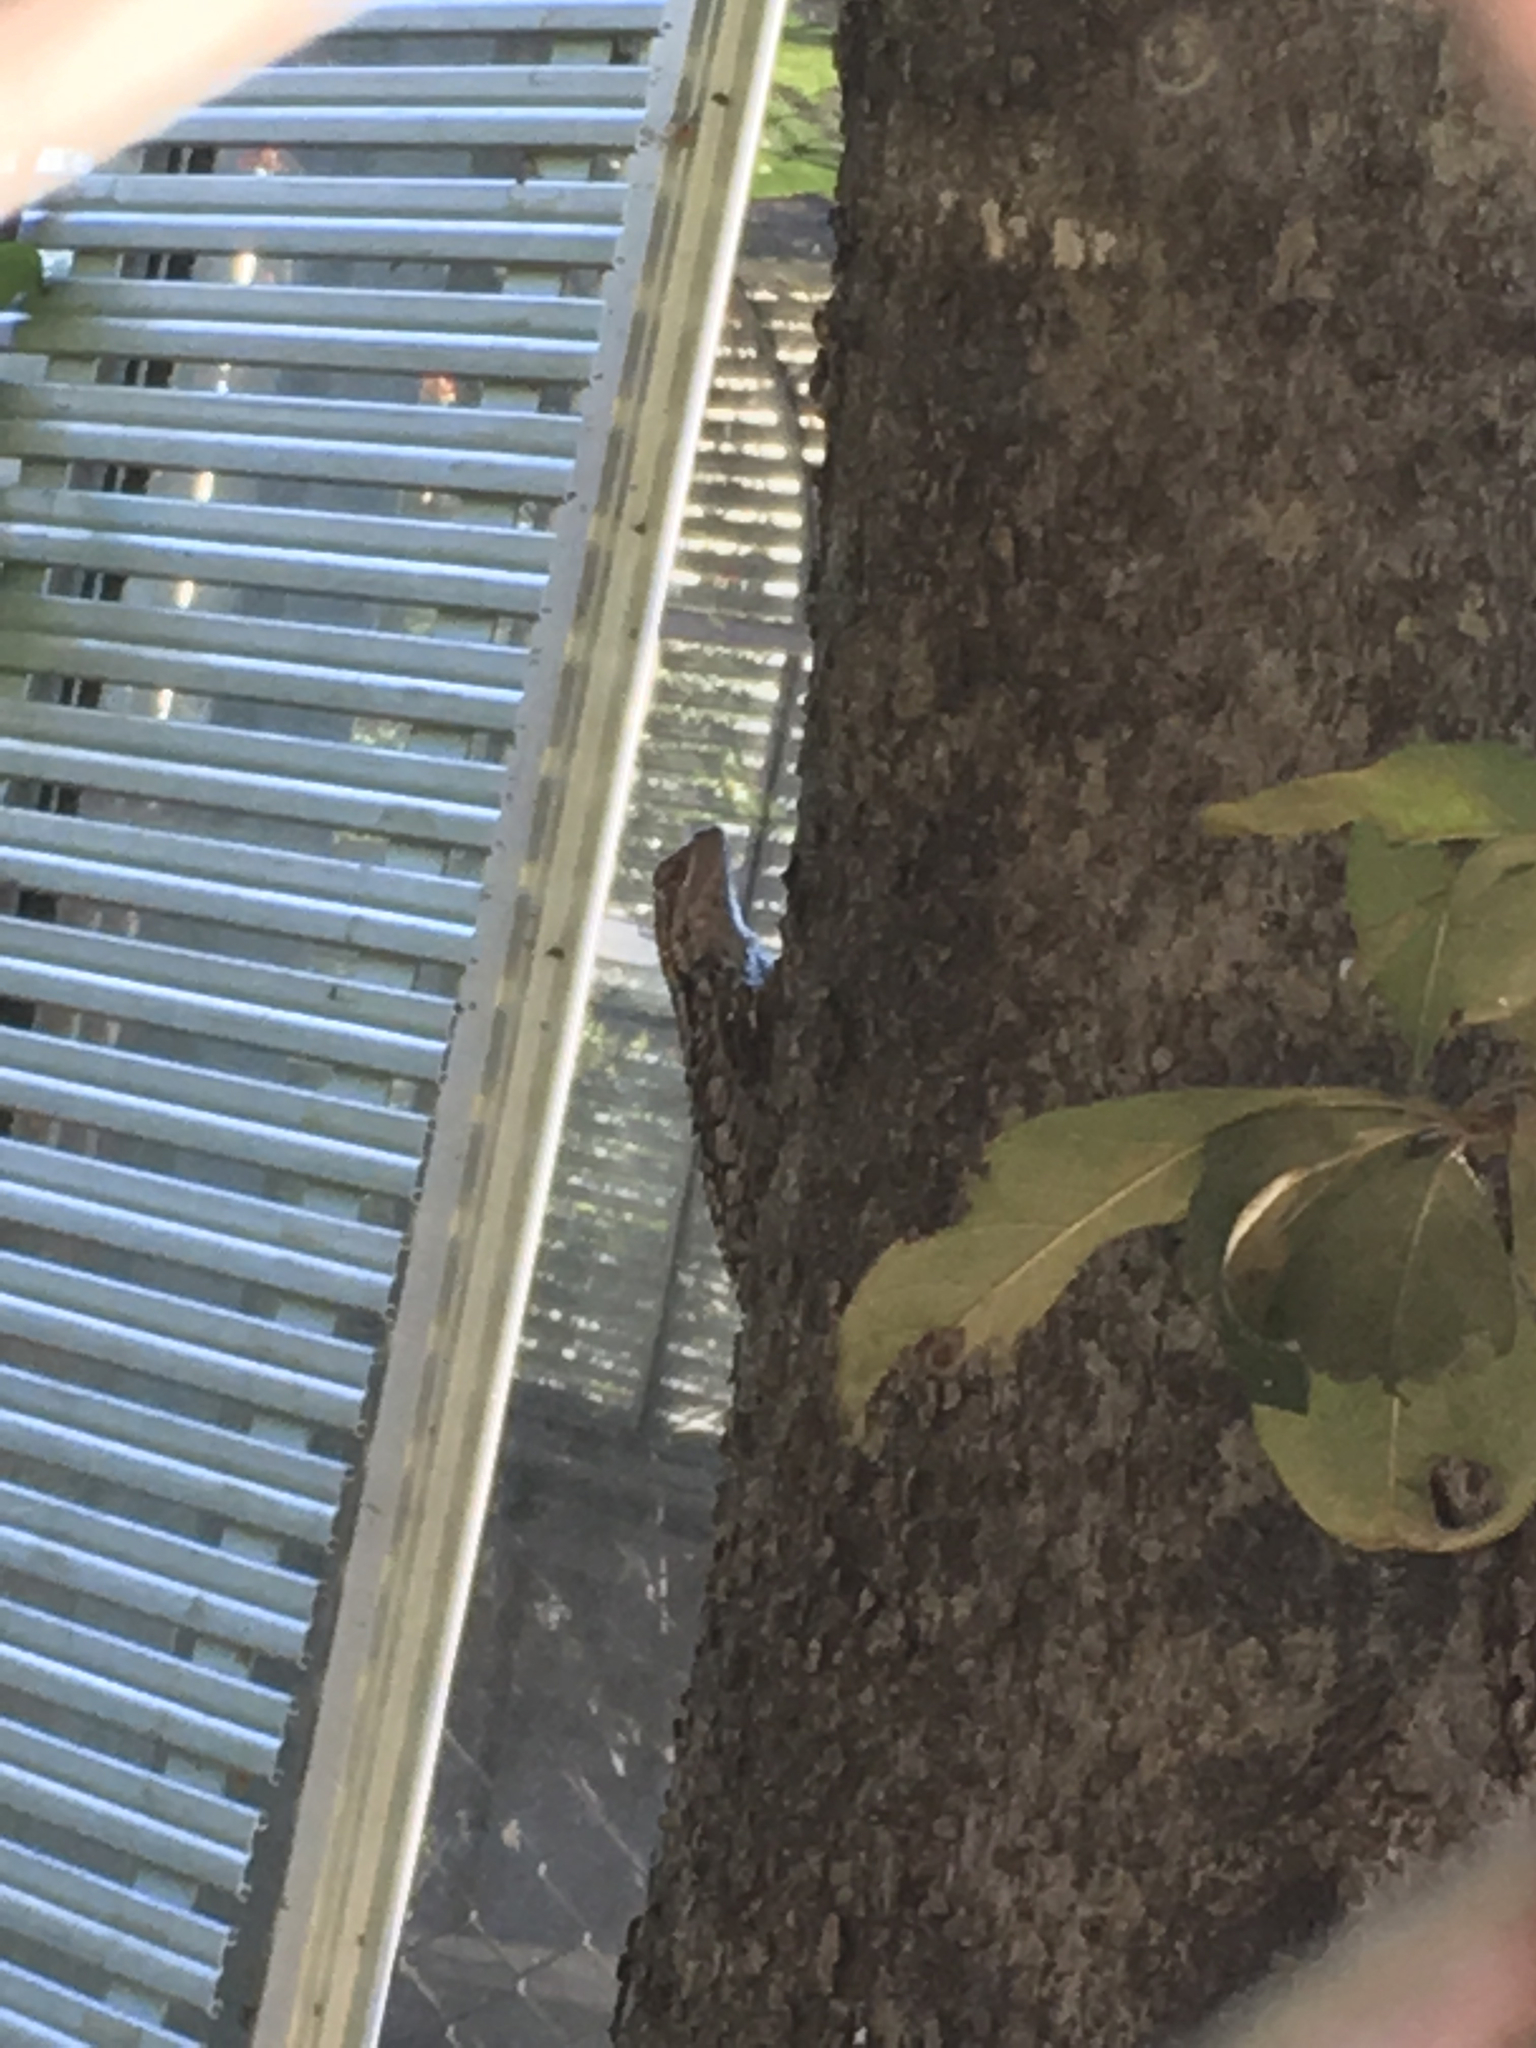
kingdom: Animalia
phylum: Chordata
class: Squamata
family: Phrynosomatidae
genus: Sceloporus
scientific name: Sceloporus olivaceus
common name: Texas spiny lizard
